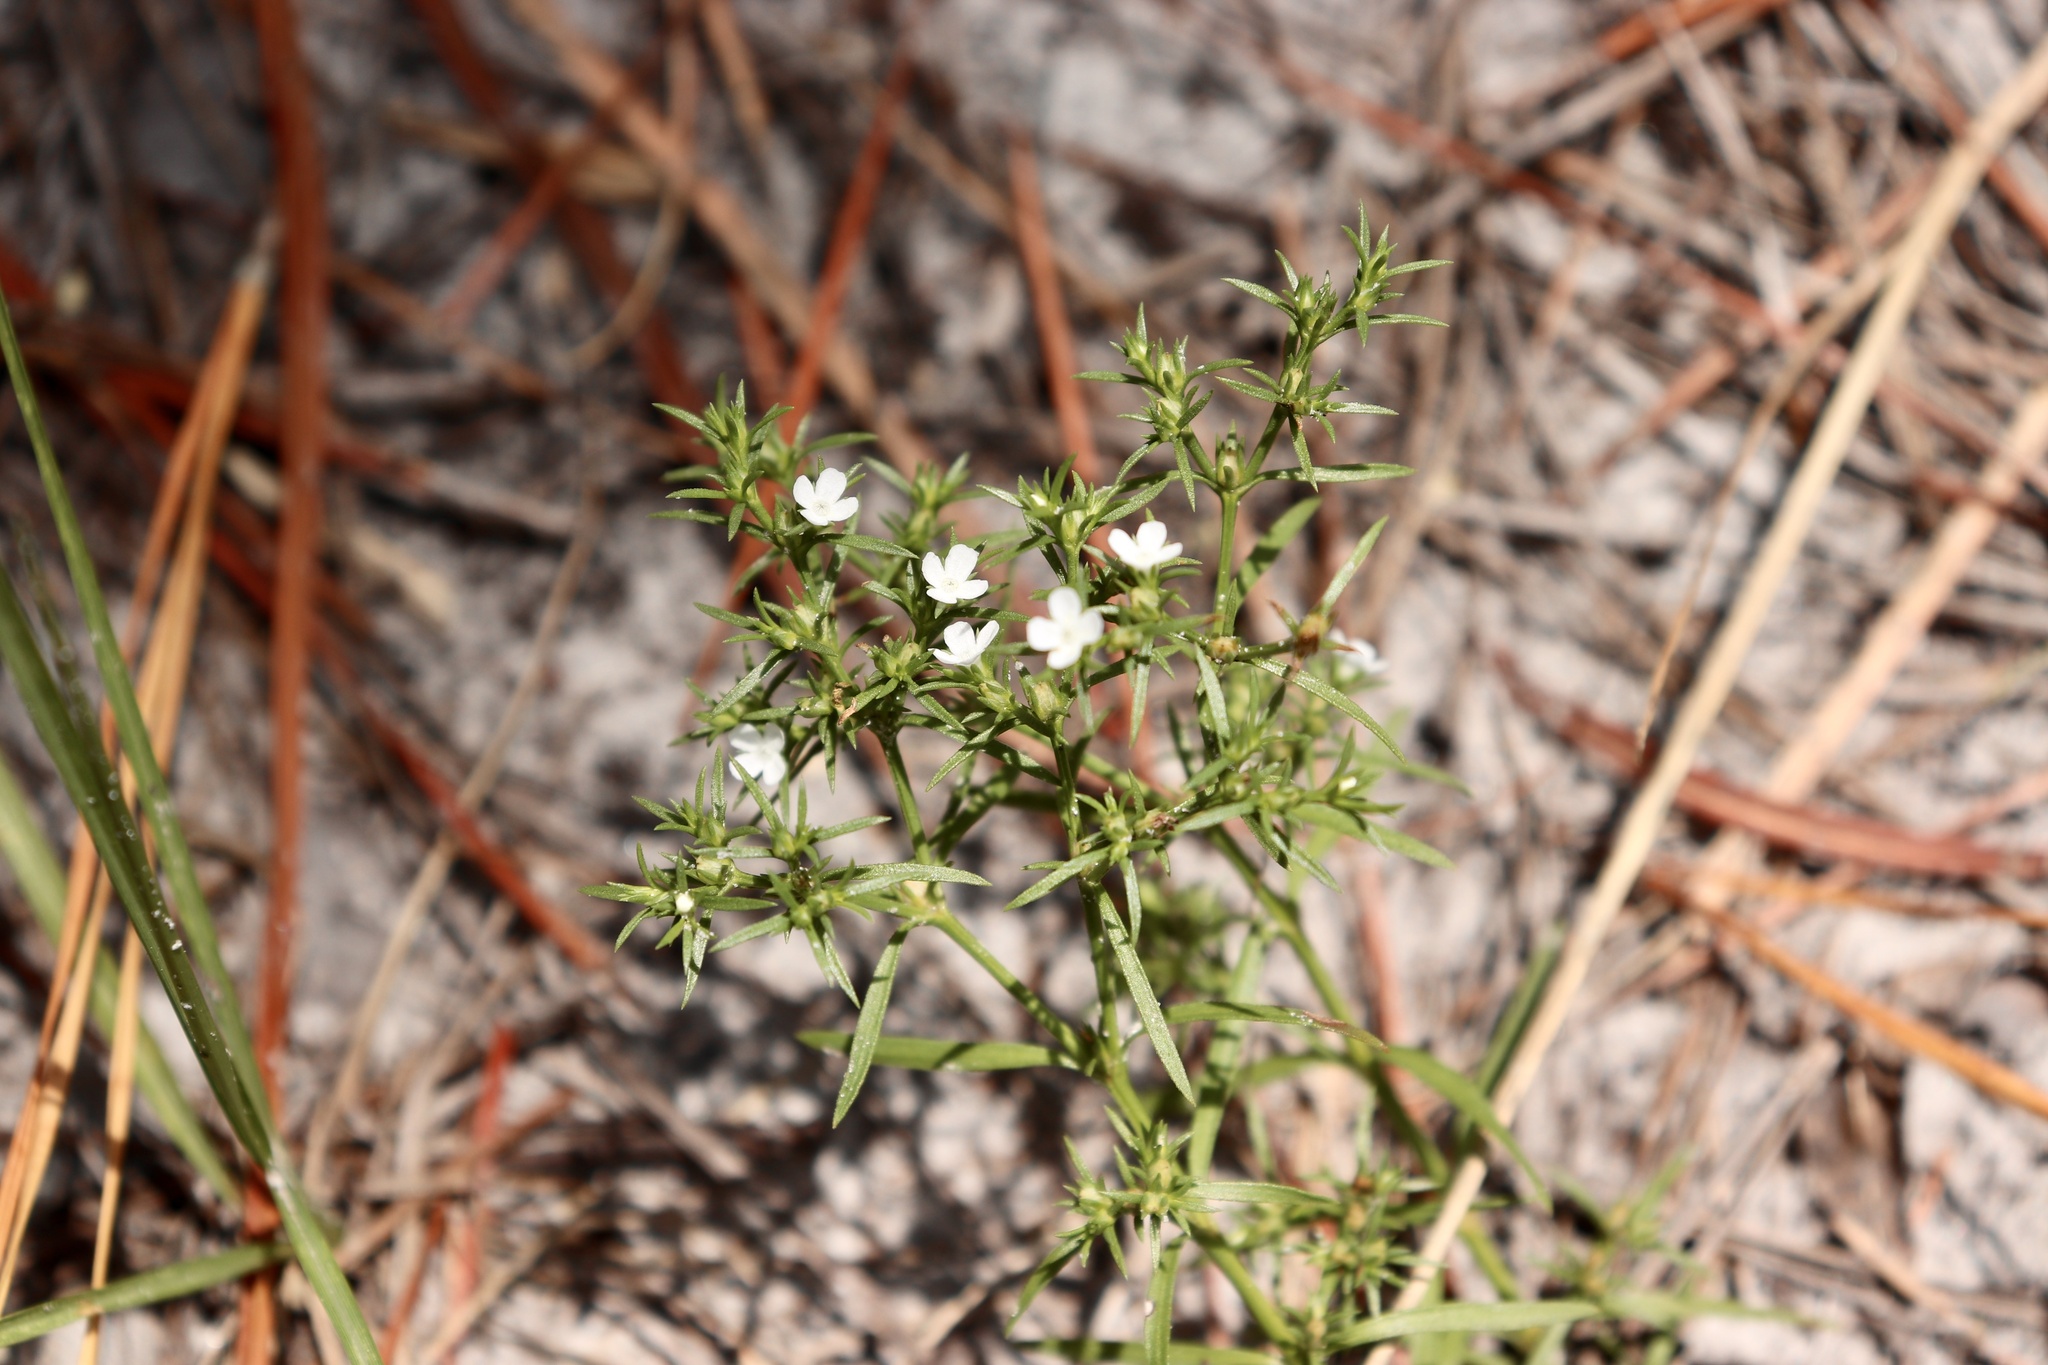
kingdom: Plantae
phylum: Tracheophyta
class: Magnoliopsida
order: Lamiales
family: Tetrachondraceae
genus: Polypremum
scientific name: Polypremum procumbens
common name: Juniper-leaf
